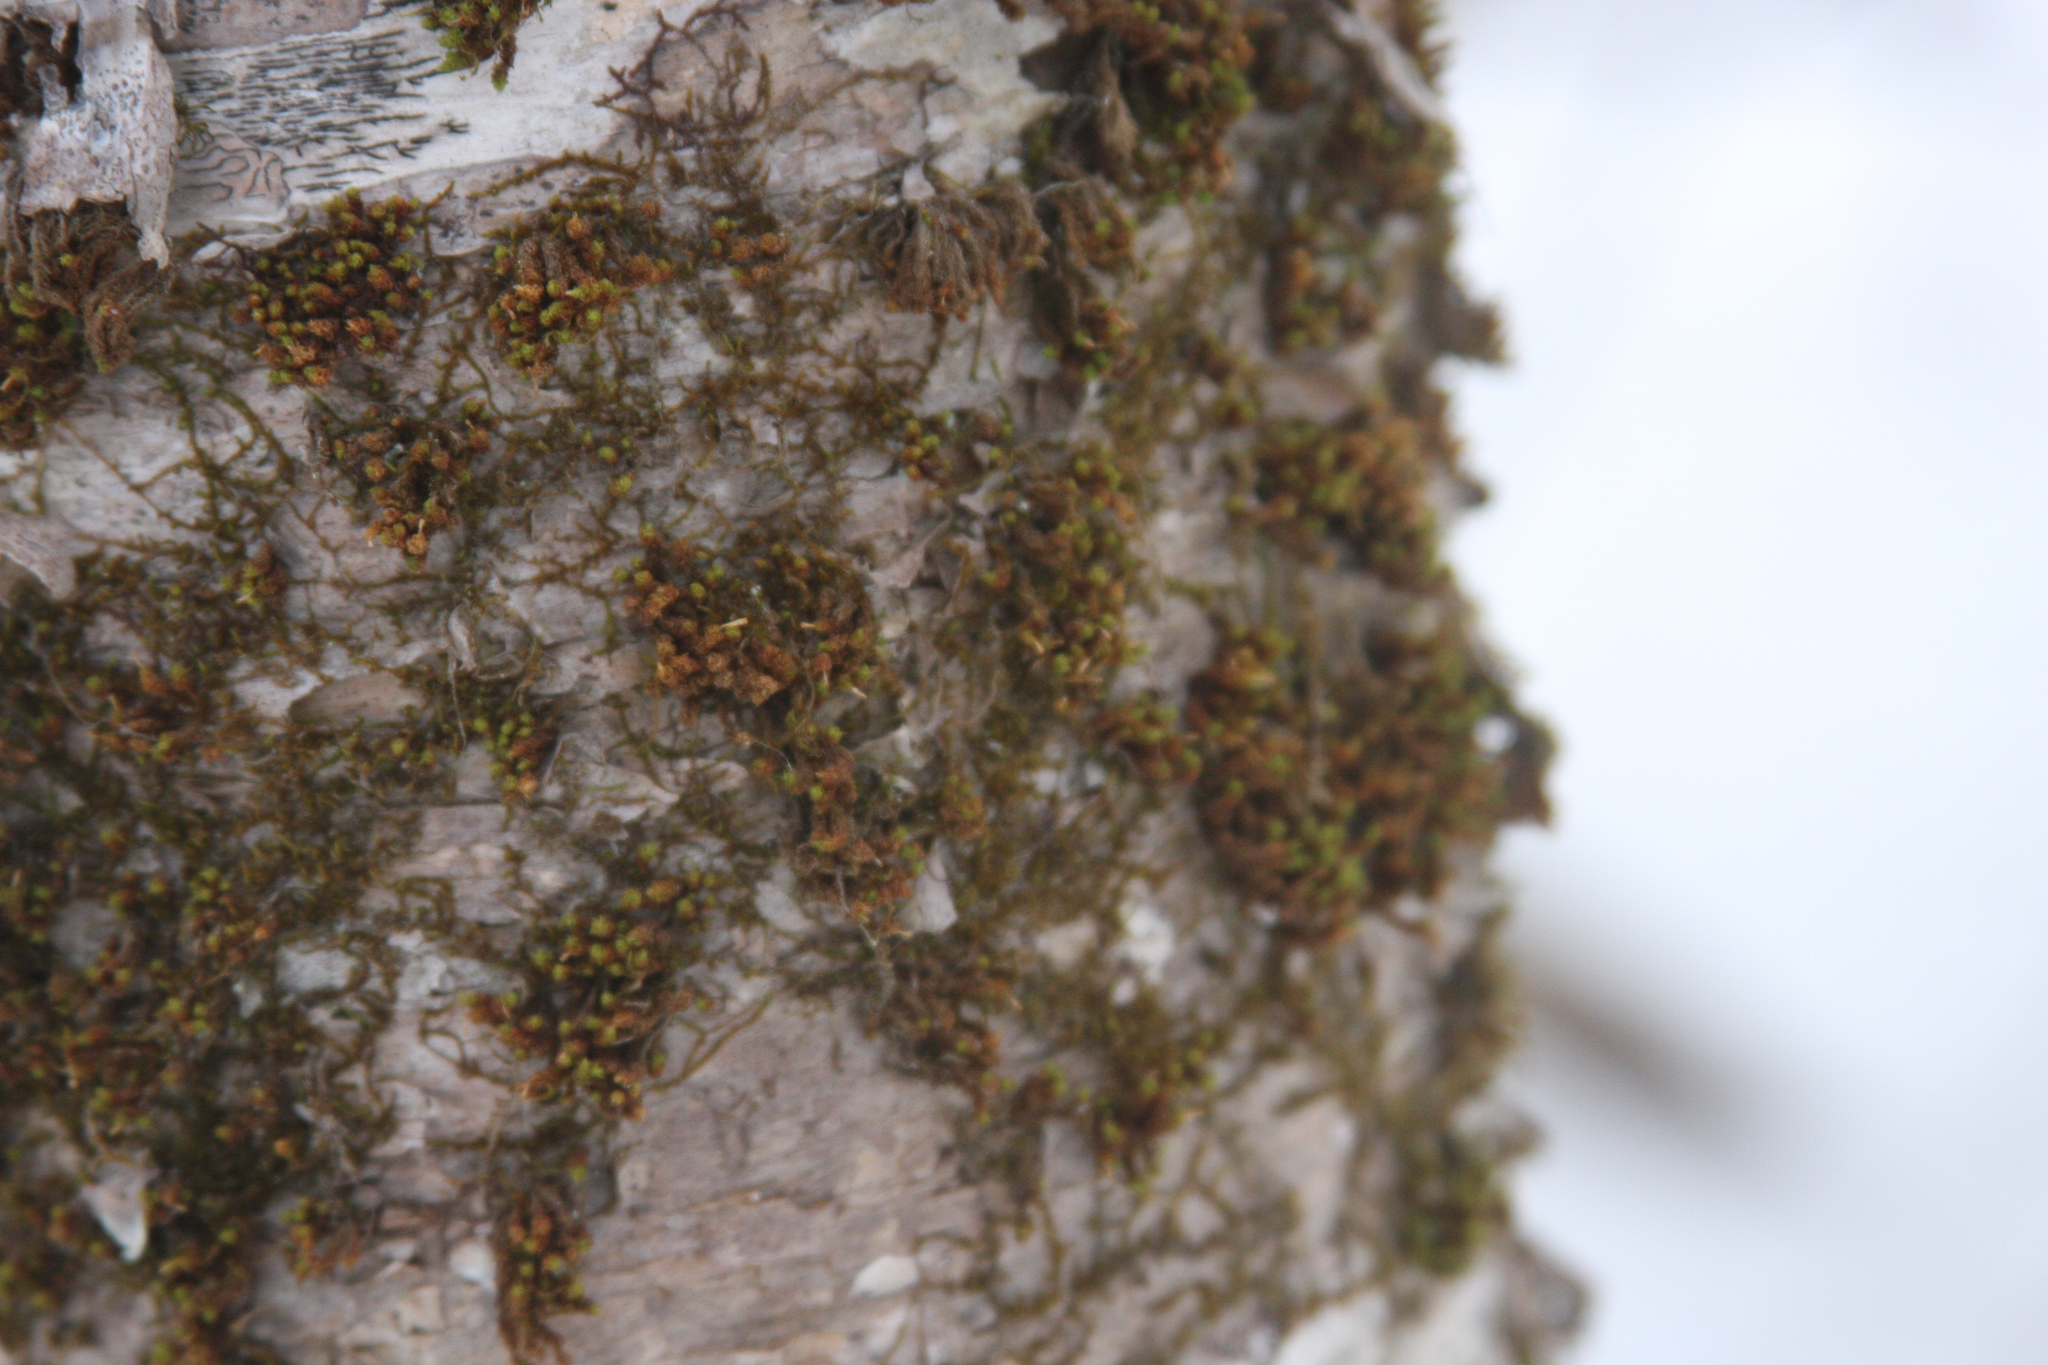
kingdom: Plantae
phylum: Bryophyta
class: Bryopsida
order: Orthotrichales
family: Orthotrichaceae
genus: Ulota
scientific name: Ulota crispa
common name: Crisped pincushion moss
